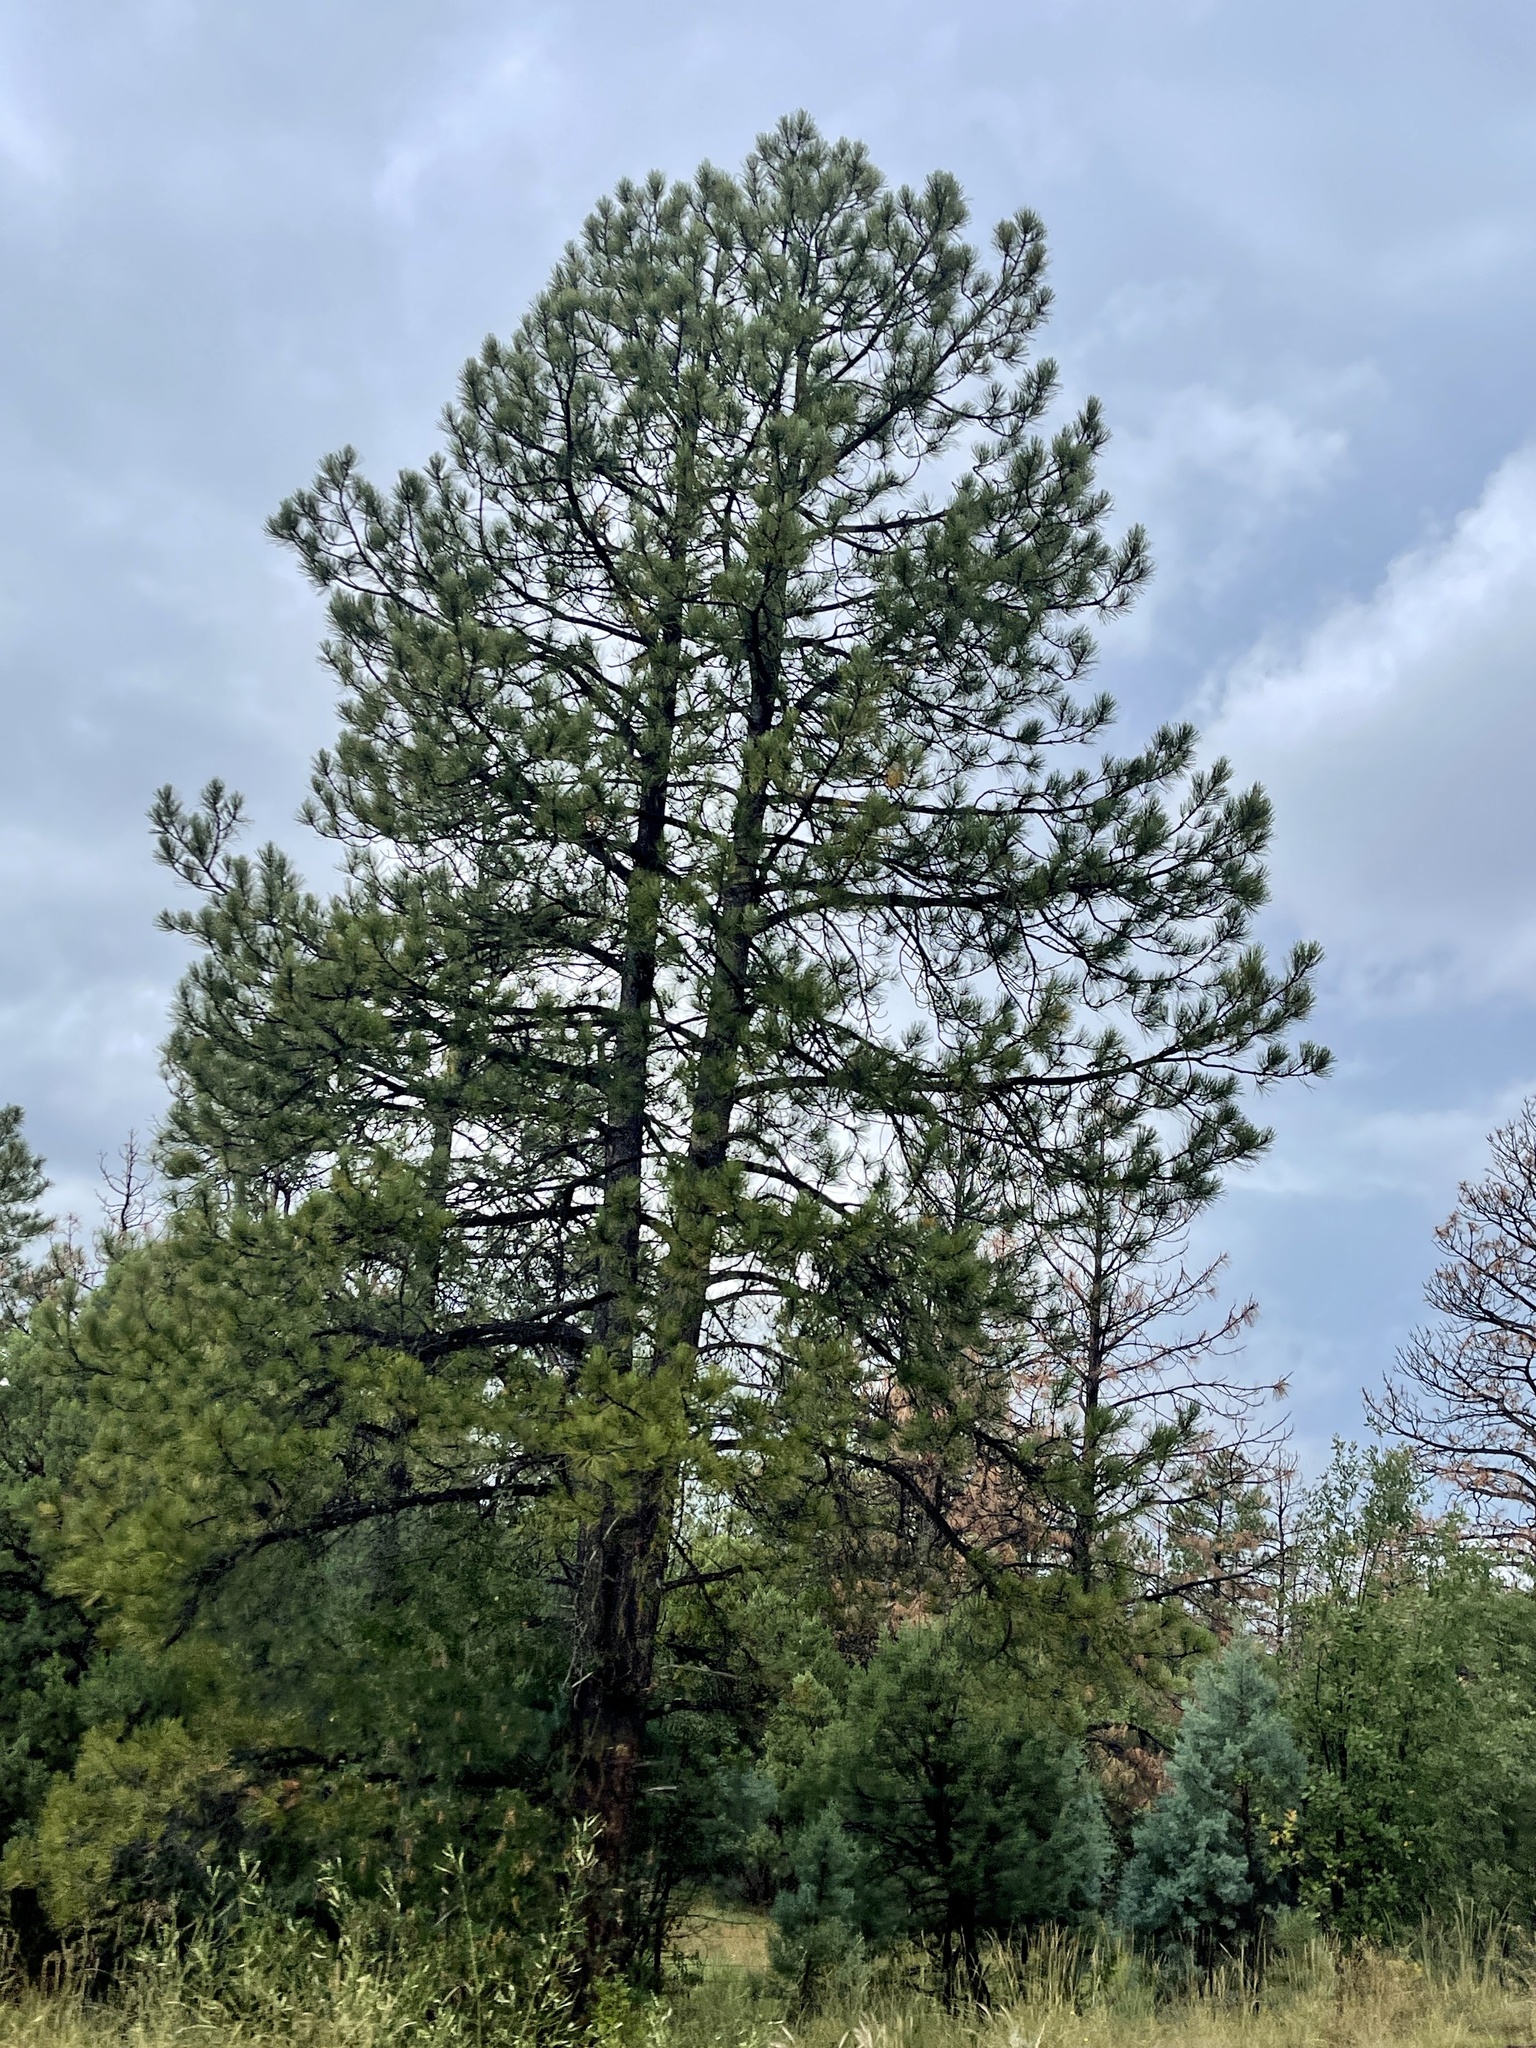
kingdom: Plantae
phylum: Tracheophyta
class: Pinopsida
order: Pinales
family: Pinaceae
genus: Pinus
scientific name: Pinus ponderosa
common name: Western yellow-pine
